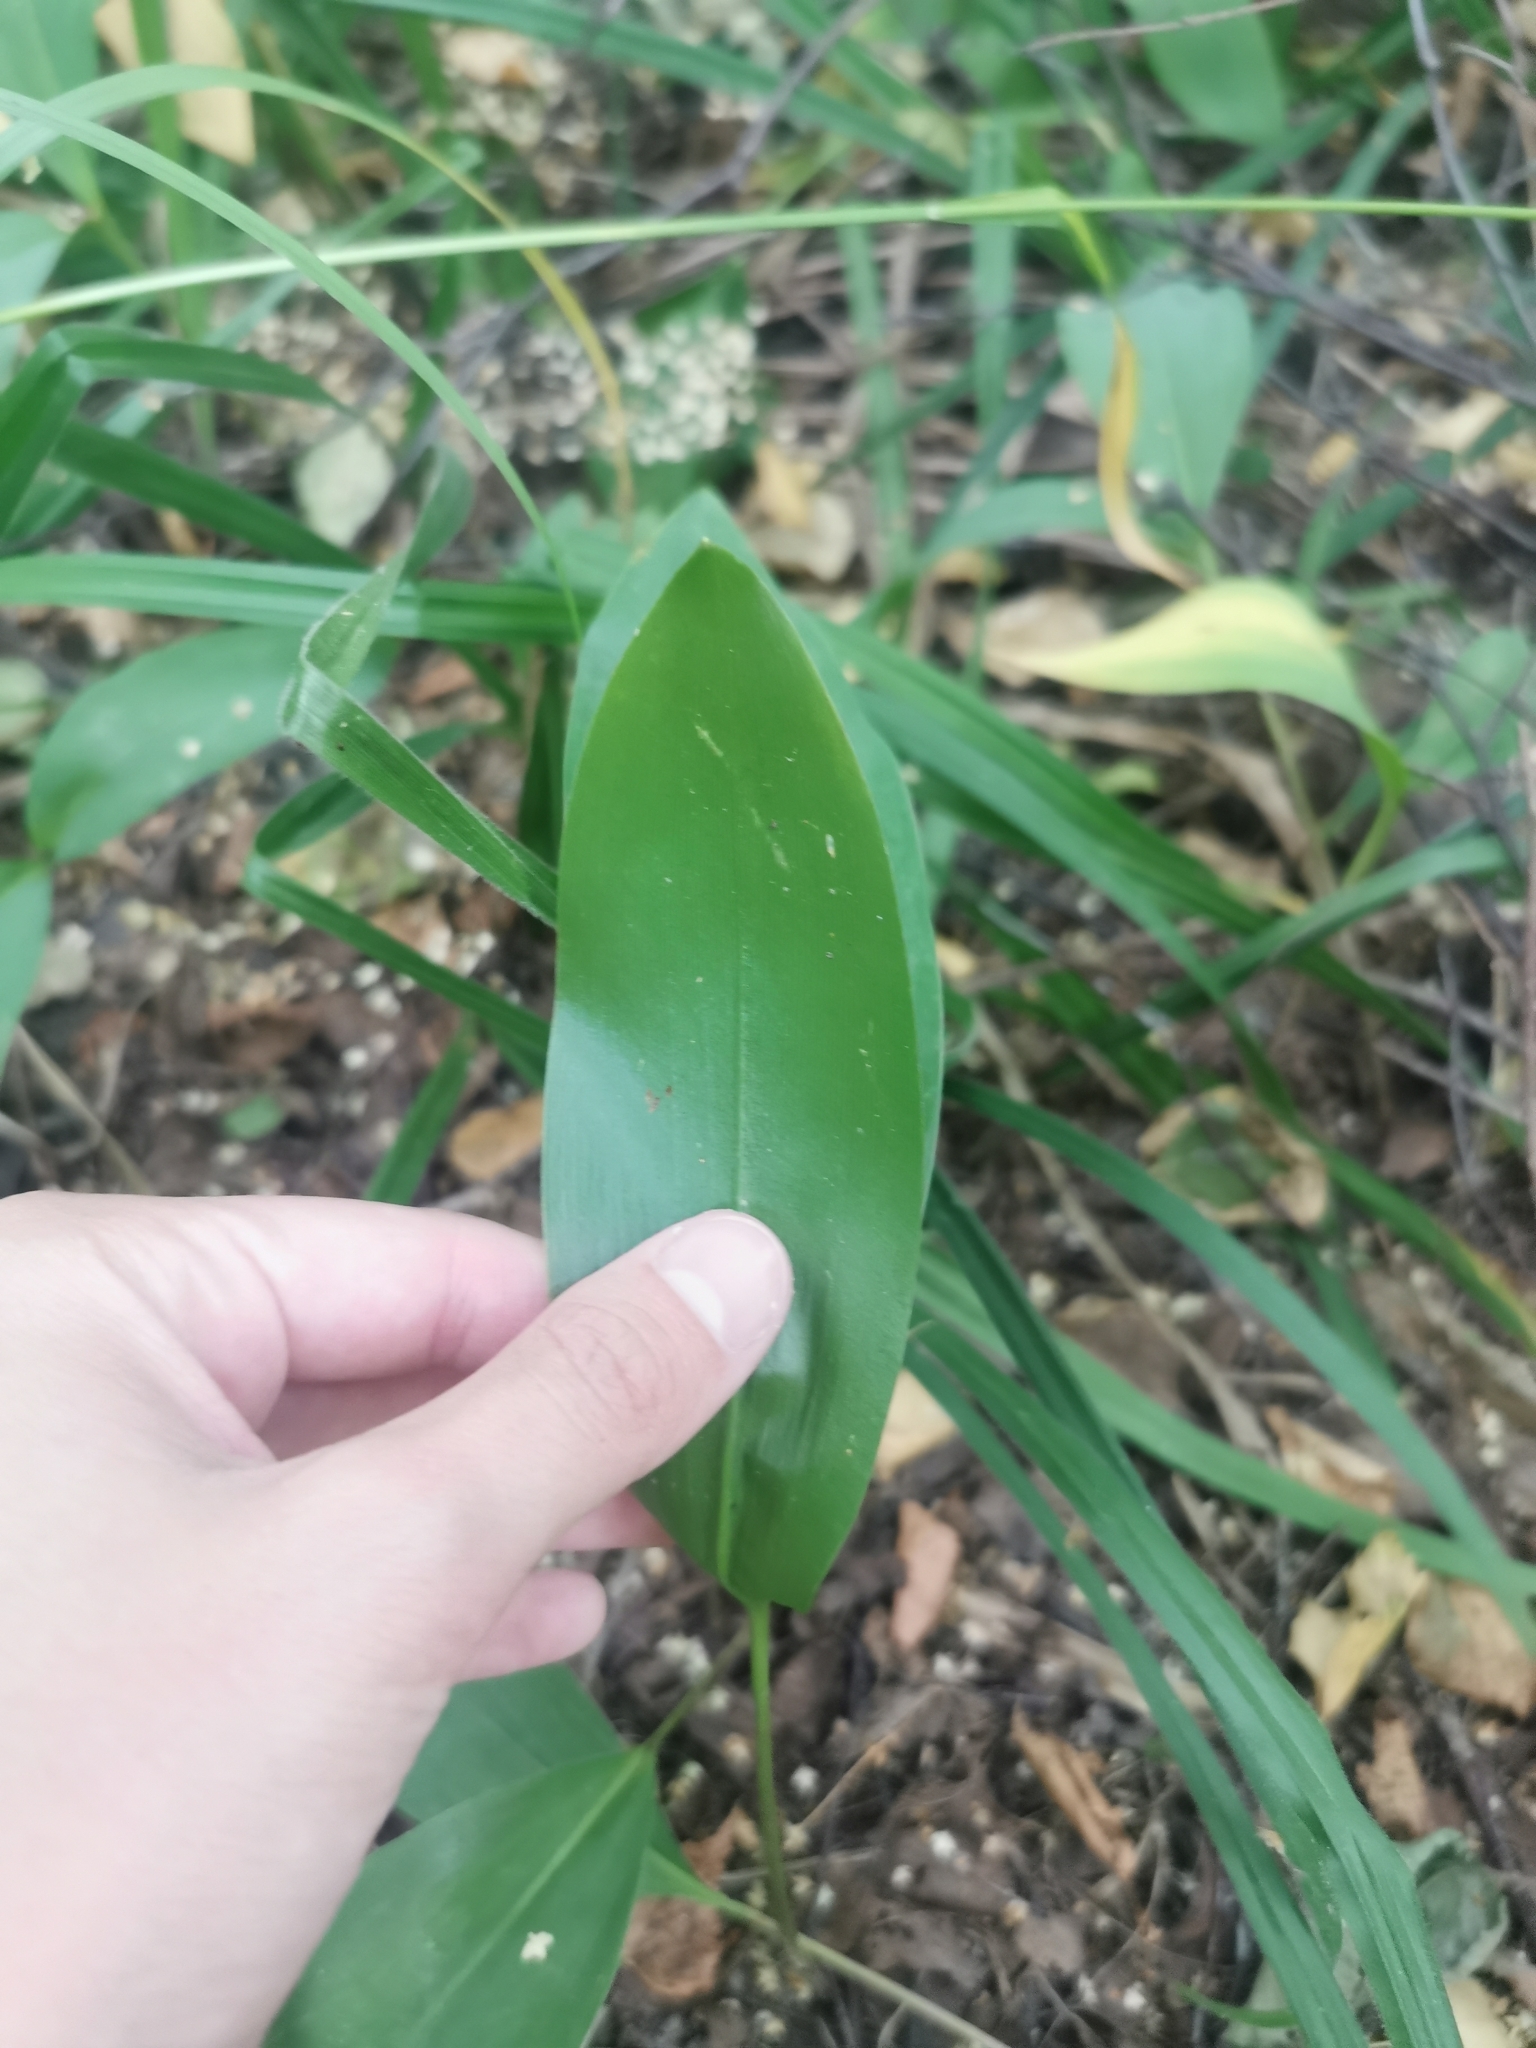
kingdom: Plantae
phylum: Tracheophyta
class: Liliopsida
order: Asparagales
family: Asparagaceae
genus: Convallaria
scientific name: Convallaria majalis
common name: Lily-of-the-valley
